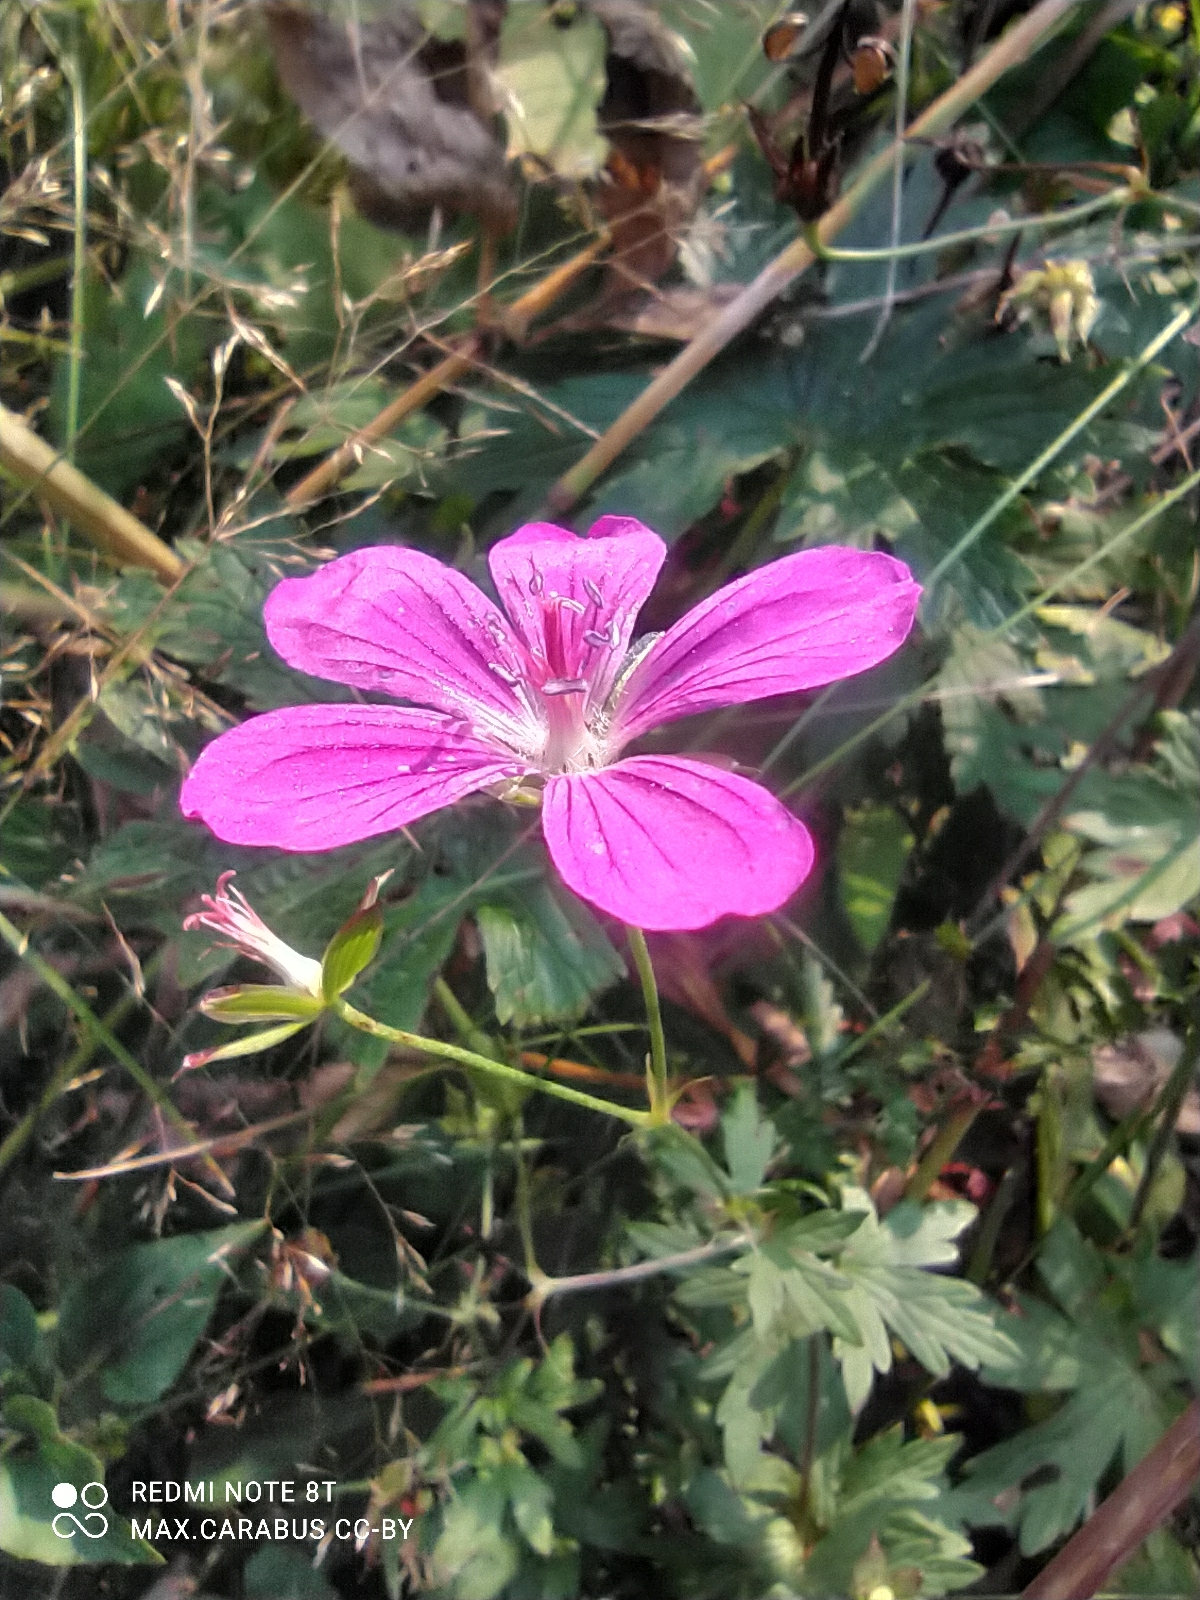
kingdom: Plantae
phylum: Tracheophyta
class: Magnoliopsida
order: Geraniales
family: Geraniaceae
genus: Geranium
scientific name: Geranium palustre
